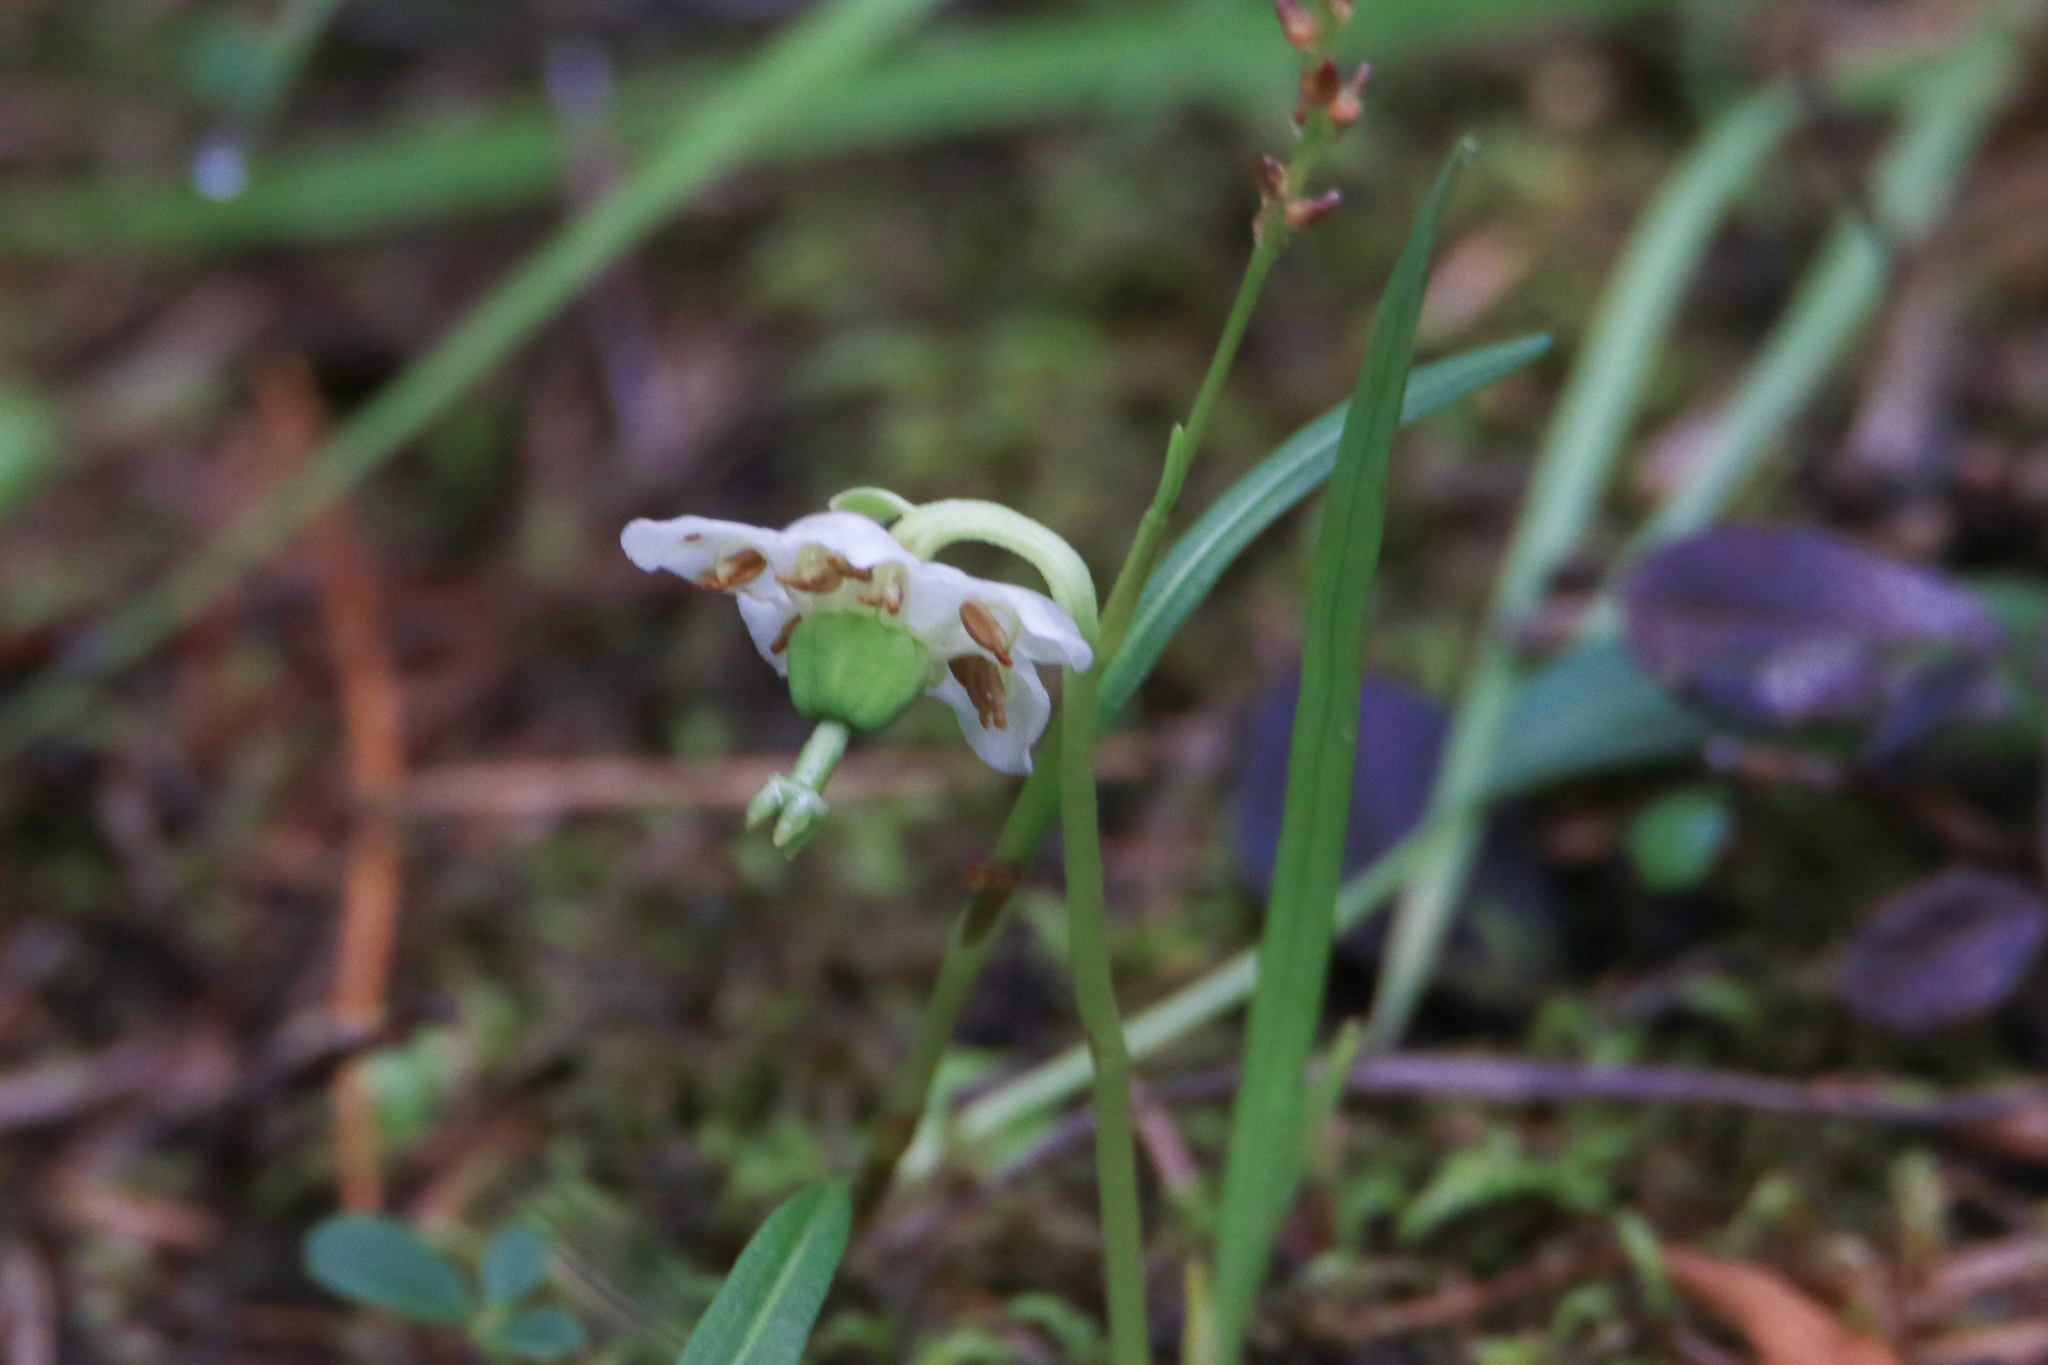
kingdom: Plantae
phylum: Tracheophyta
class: Magnoliopsida
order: Ericales
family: Ericaceae
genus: Moneses
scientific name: Moneses uniflora
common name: One-flowered wintergreen
